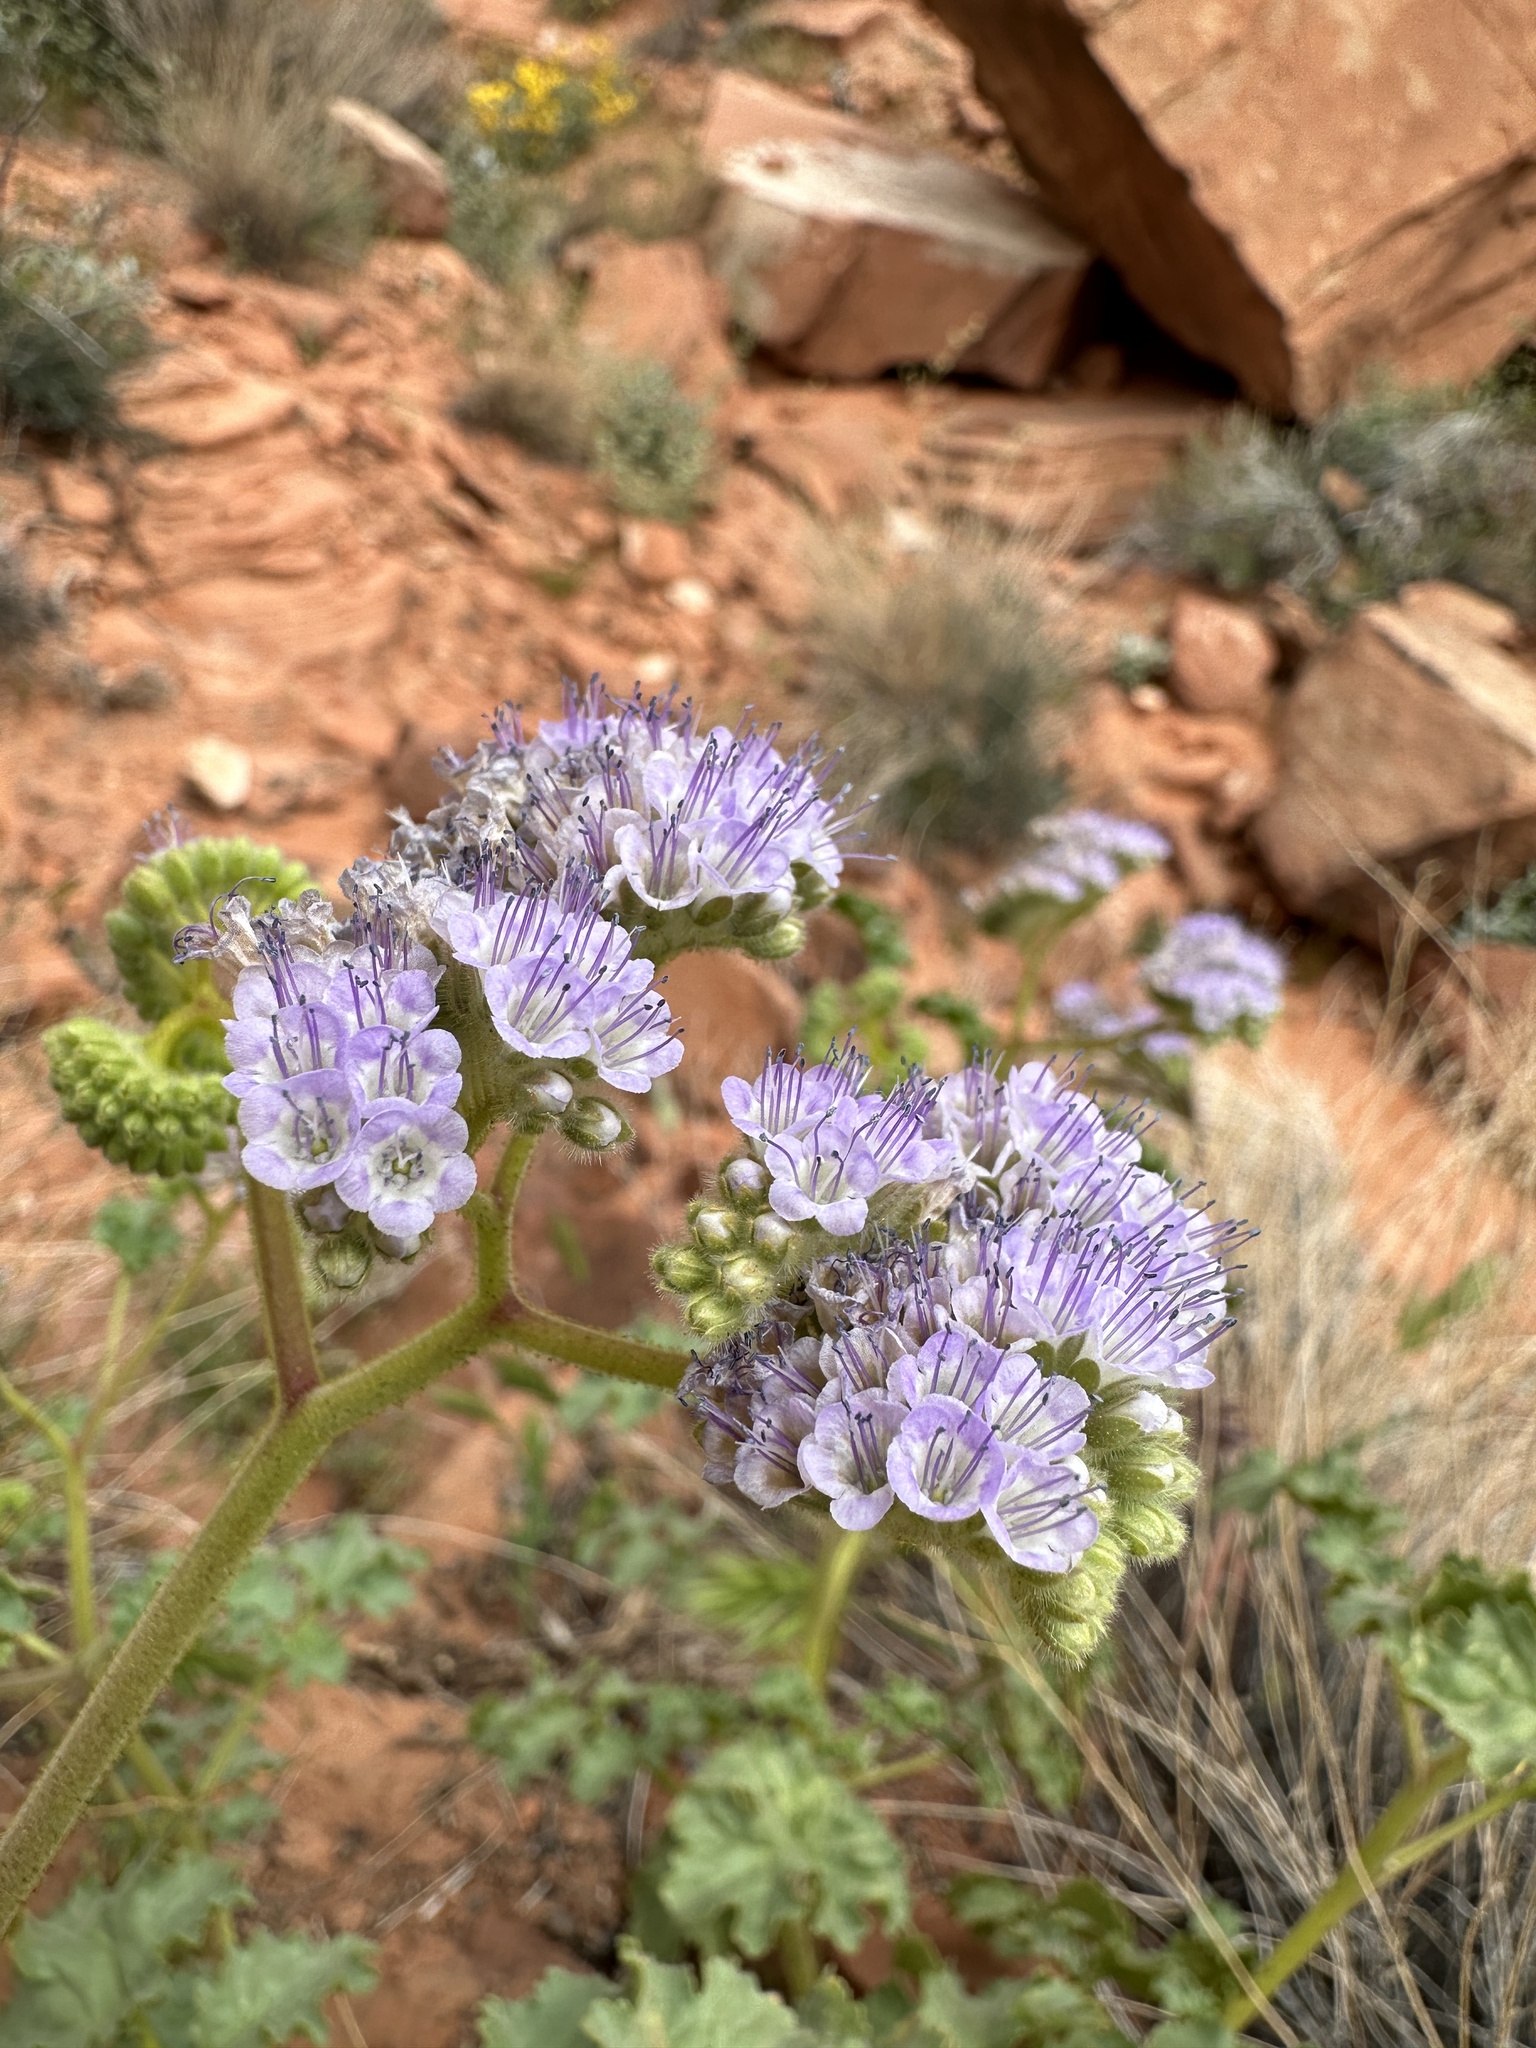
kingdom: Plantae
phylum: Tracheophyta
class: Magnoliopsida
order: Boraginales
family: Hydrophyllaceae
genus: Phacelia
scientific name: Phacelia pedicellata
